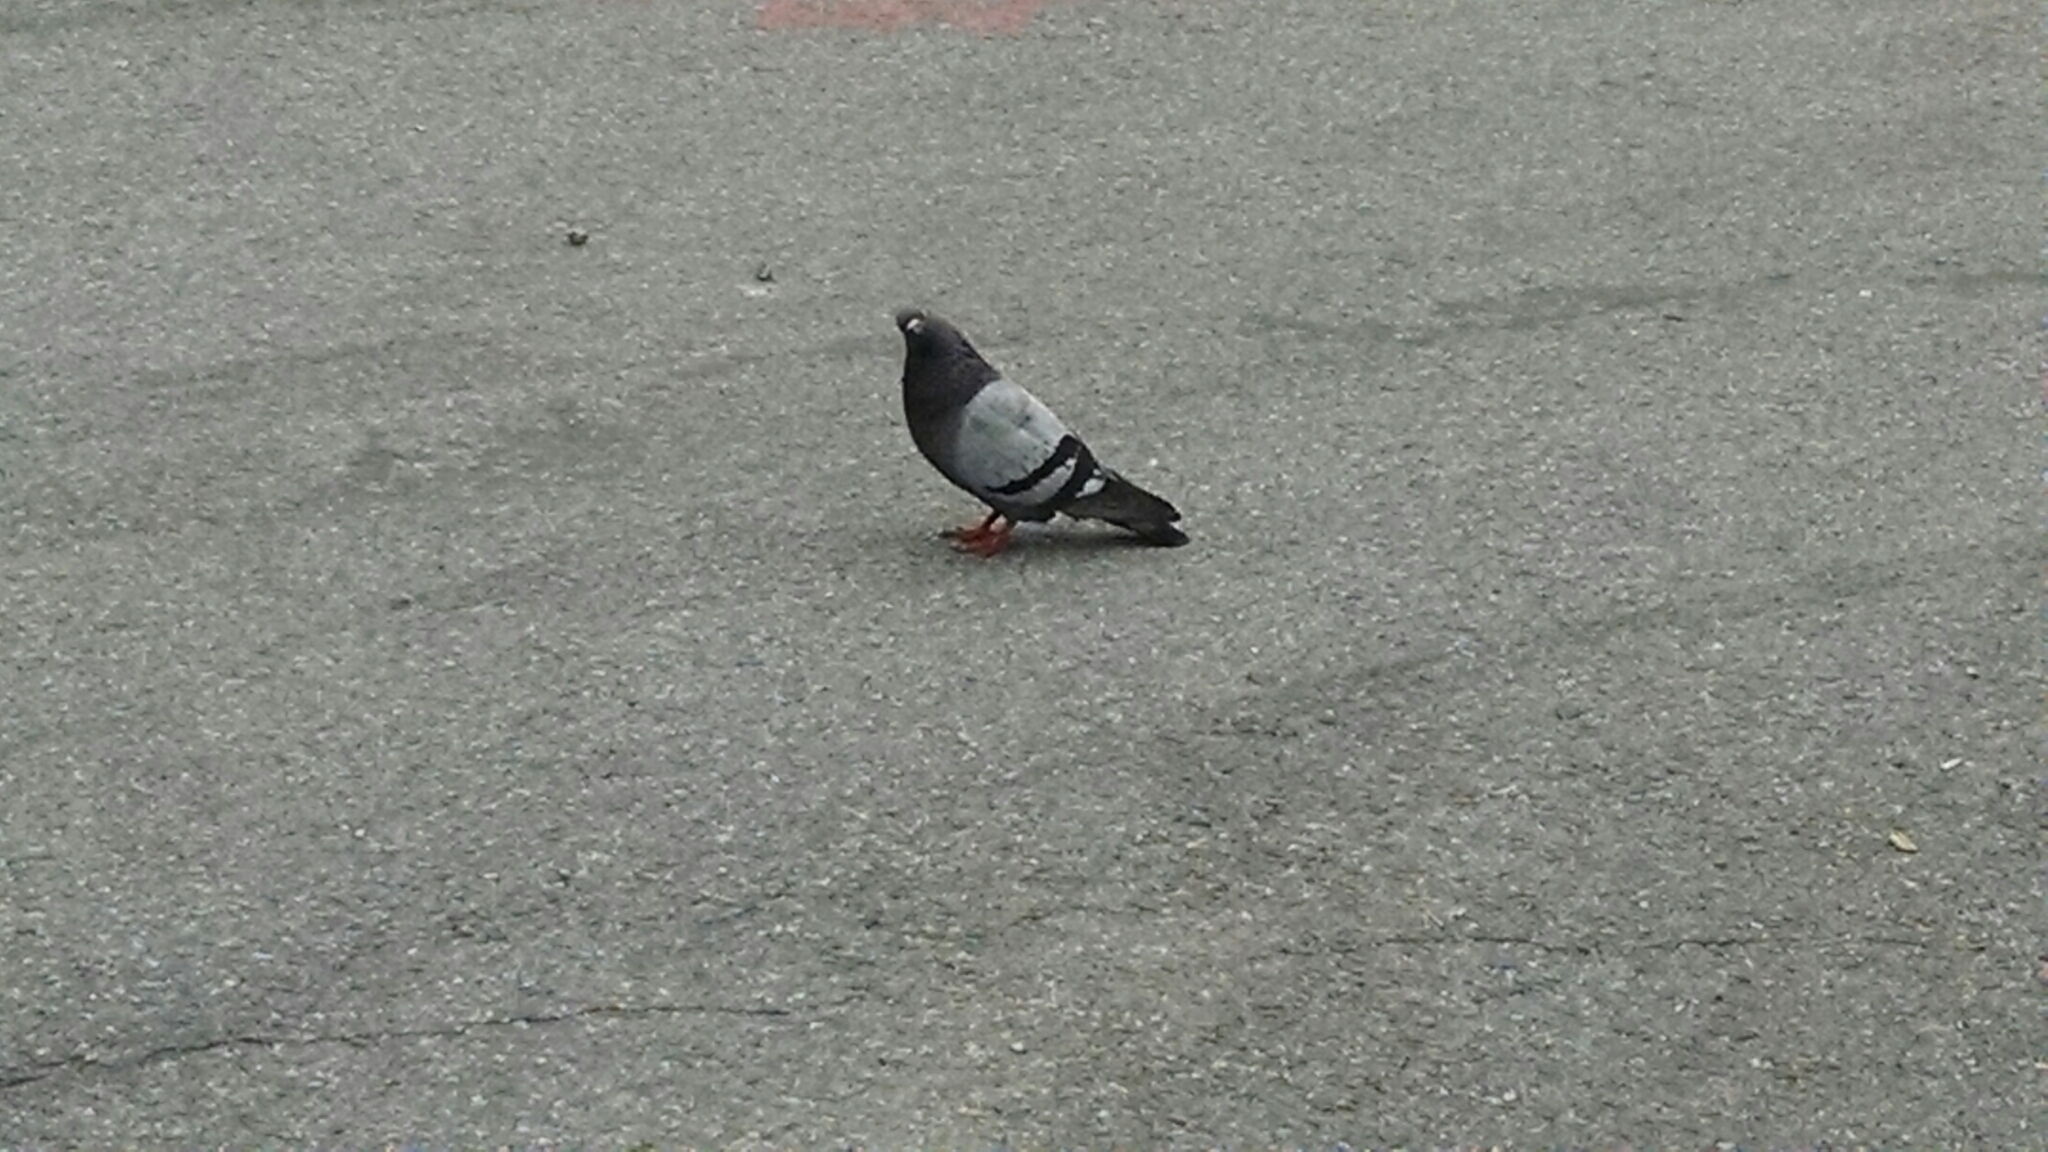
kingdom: Animalia
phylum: Chordata
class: Aves
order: Columbiformes
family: Columbidae
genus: Columba
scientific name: Columba livia
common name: Rock pigeon
